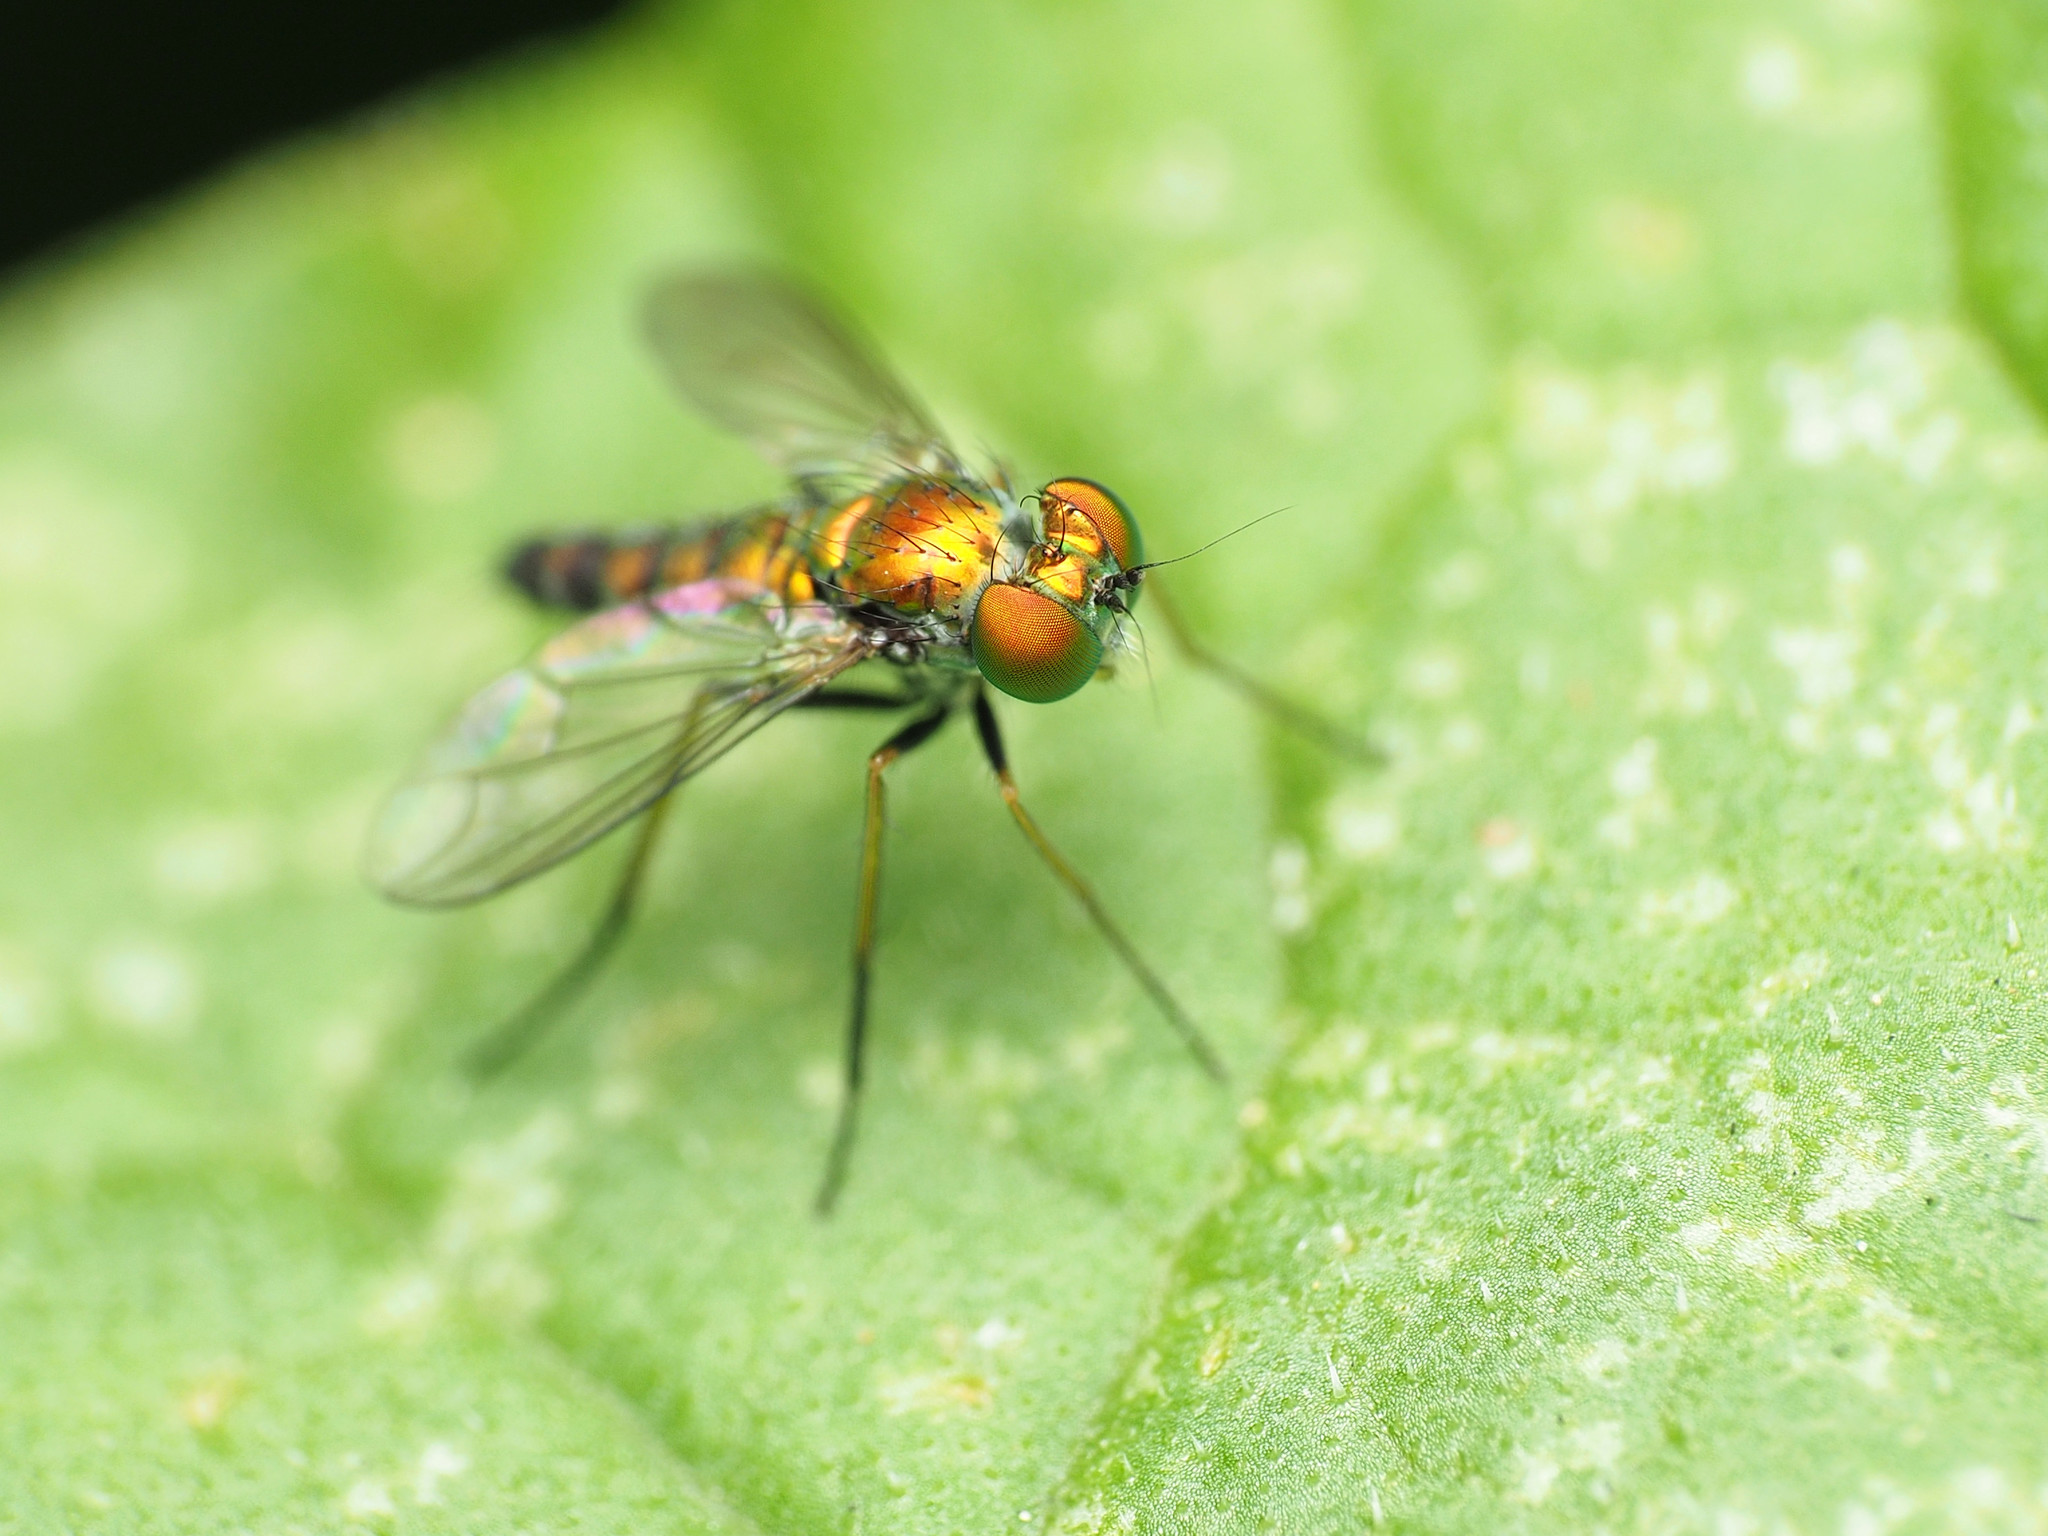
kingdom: Animalia
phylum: Arthropoda
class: Insecta
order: Diptera
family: Dolichopodidae
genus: Condylostylus
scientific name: Condylostylus caudatus
